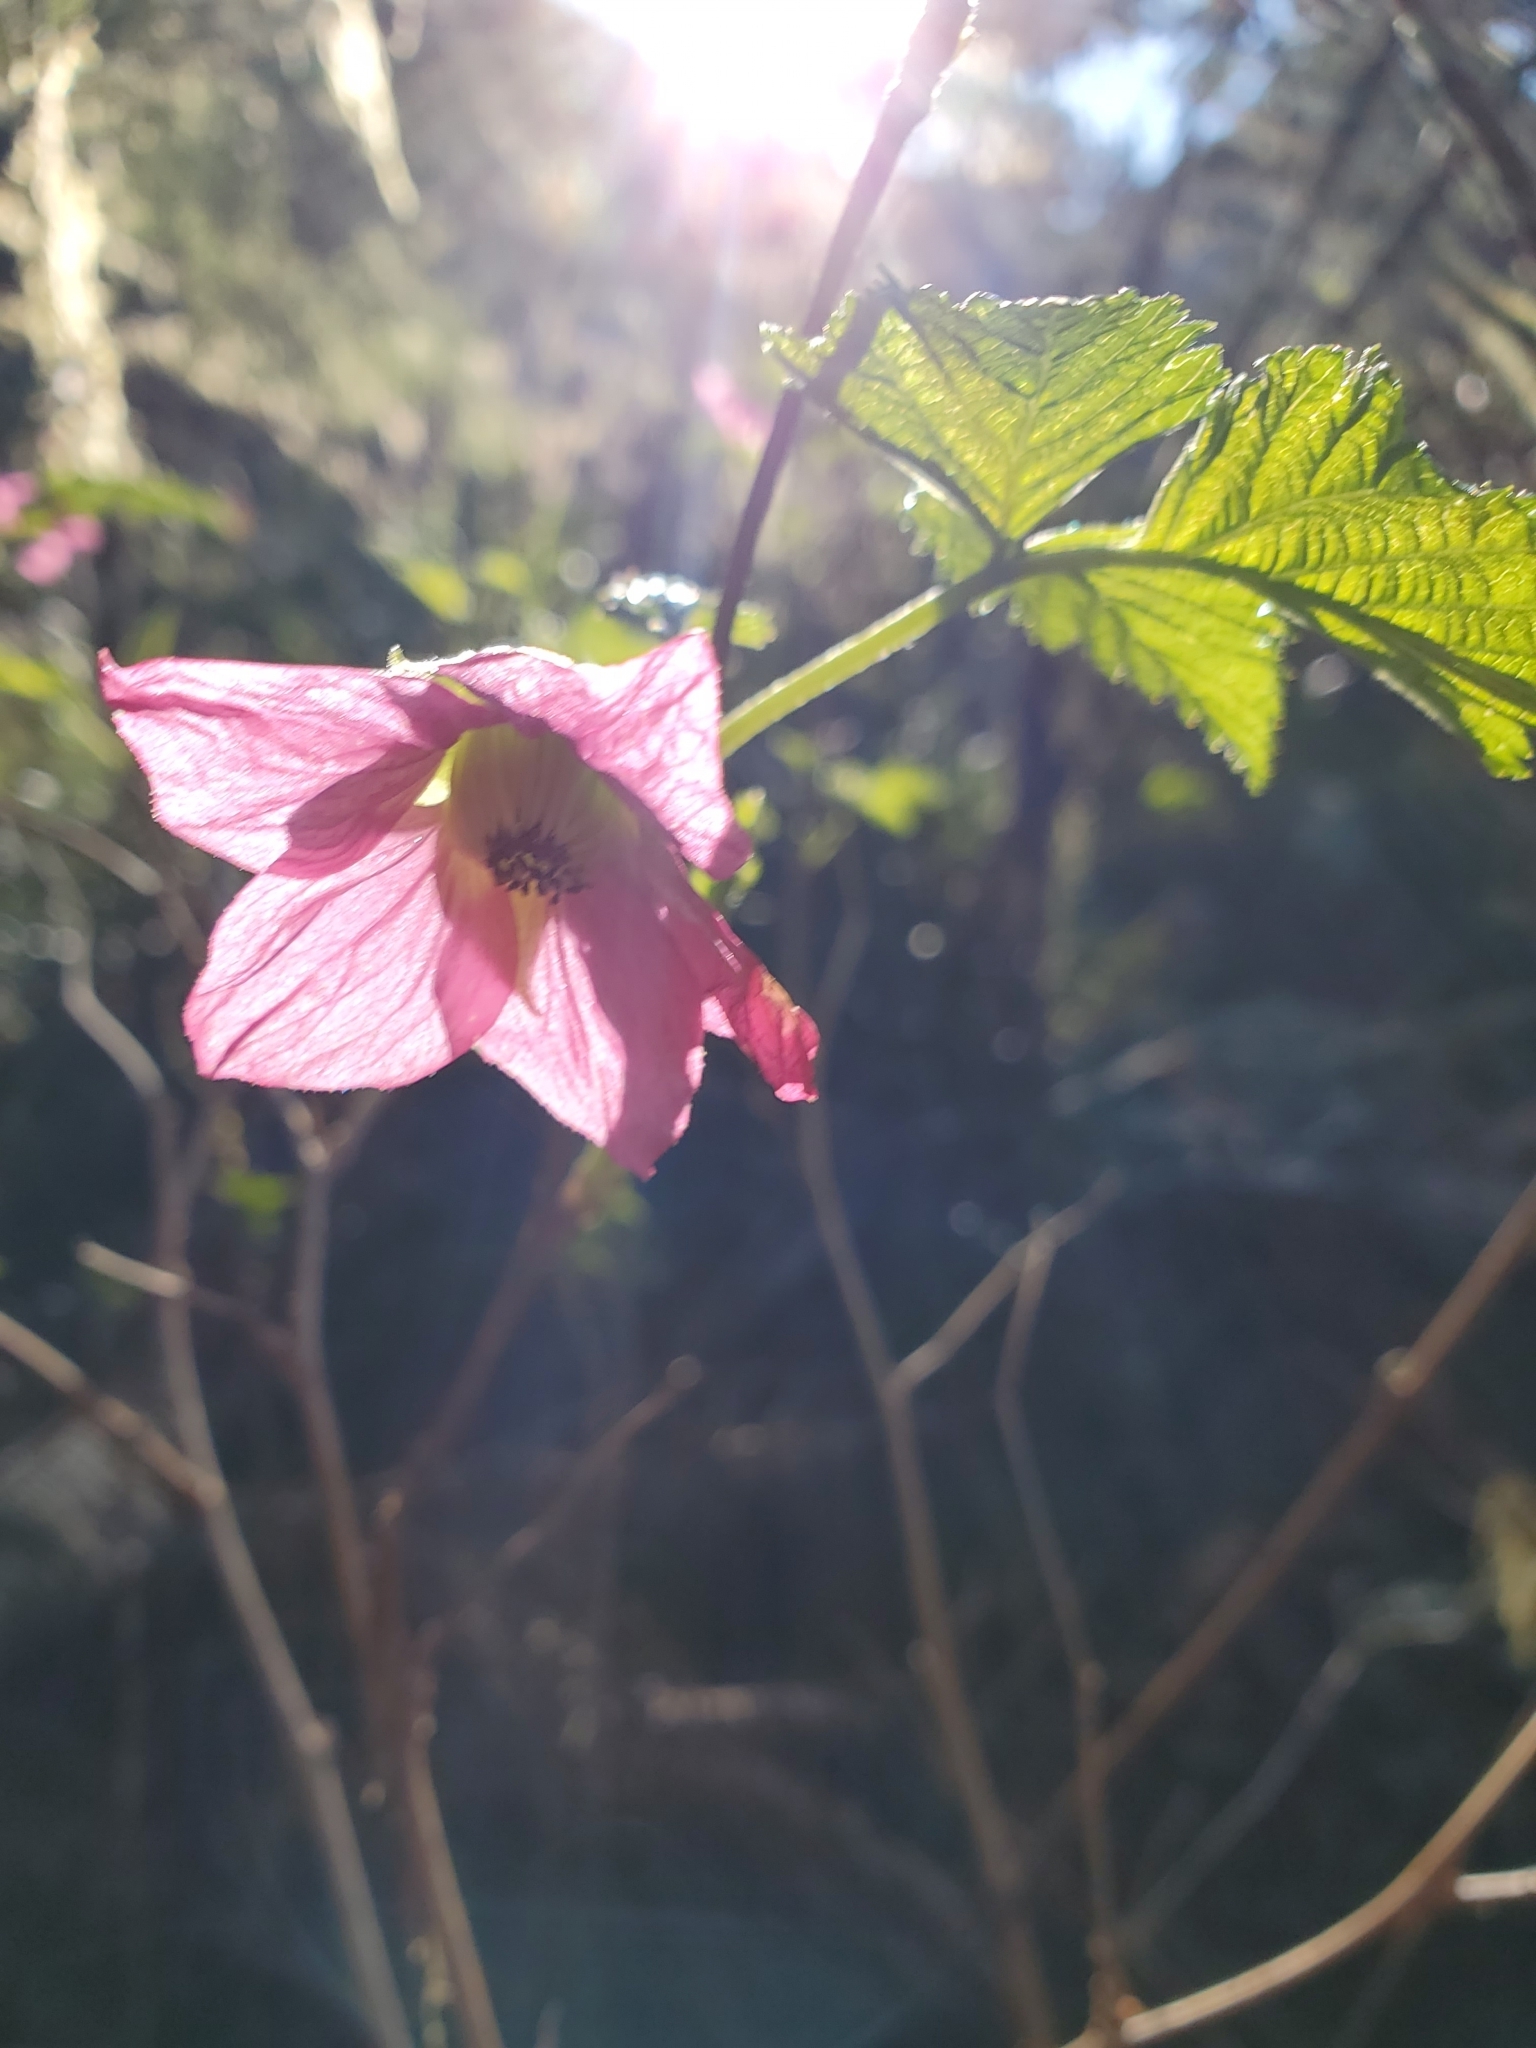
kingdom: Plantae
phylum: Tracheophyta
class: Magnoliopsida
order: Rosales
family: Rosaceae
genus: Rubus
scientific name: Rubus spectabilis
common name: Salmonberry
